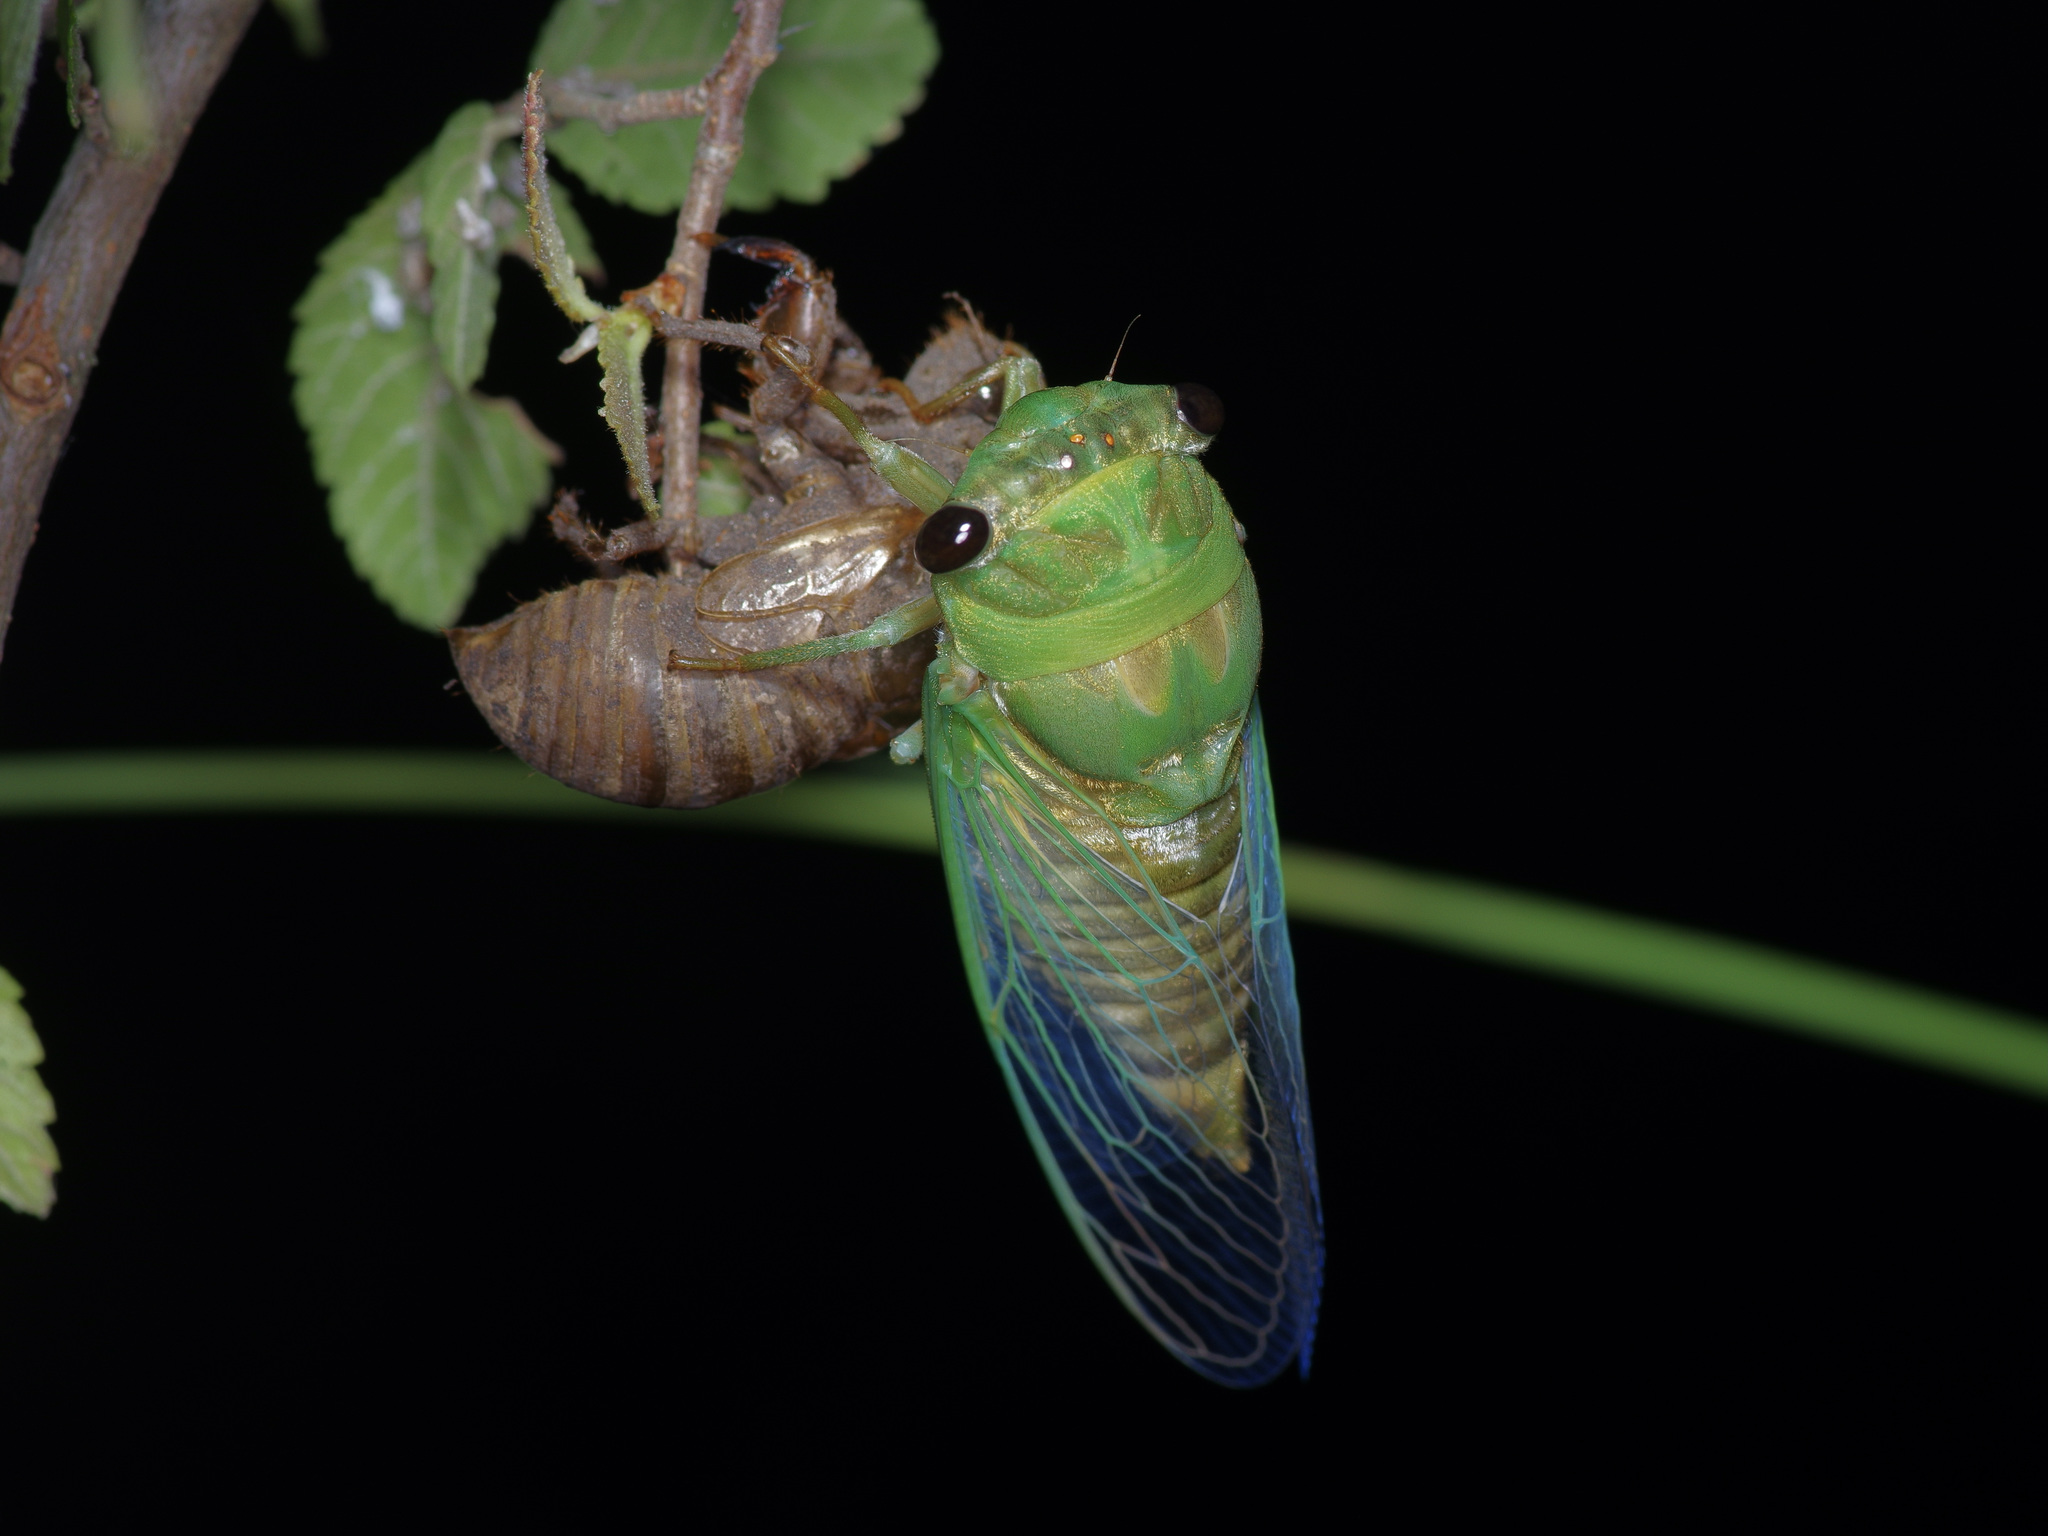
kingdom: Animalia
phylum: Arthropoda
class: Insecta
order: Hemiptera
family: Cicadidae
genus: Neotibicen
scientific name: Neotibicen superbus
